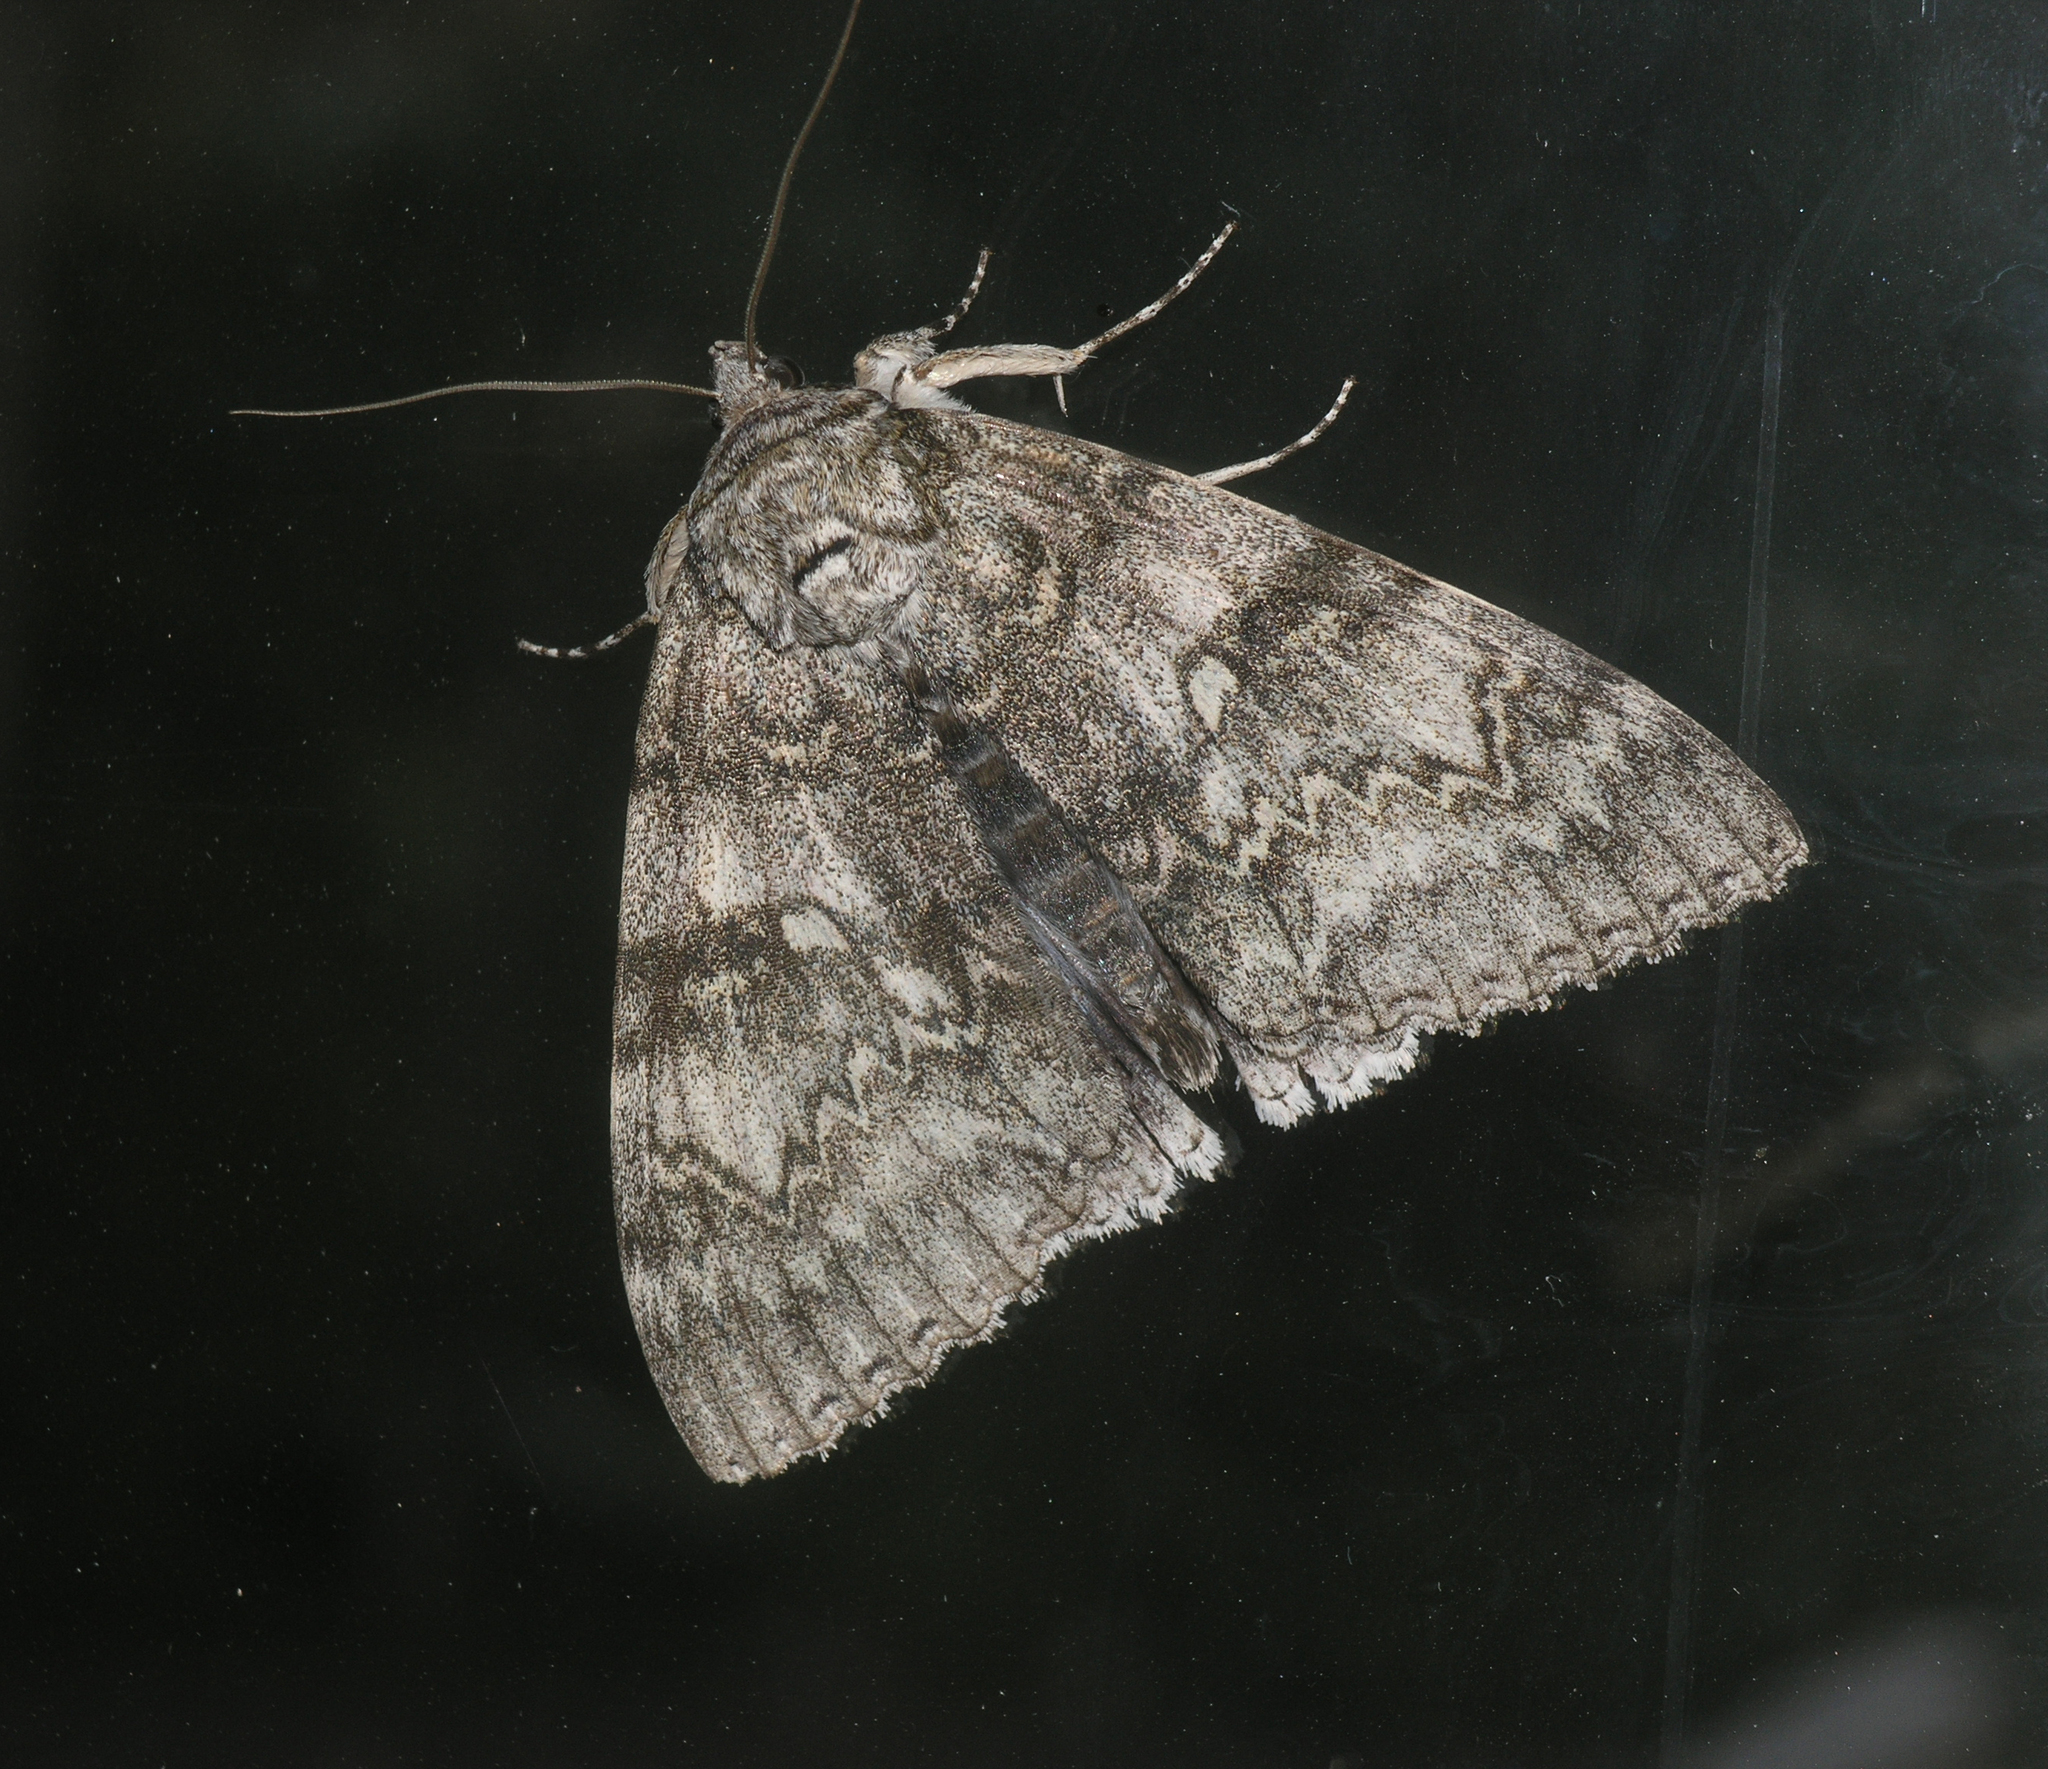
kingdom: Animalia
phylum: Arthropoda
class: Insecta
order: Lepidoptera
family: Erebidae
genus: Catocala
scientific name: Catocala fraxini
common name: Clifden nonpareil
